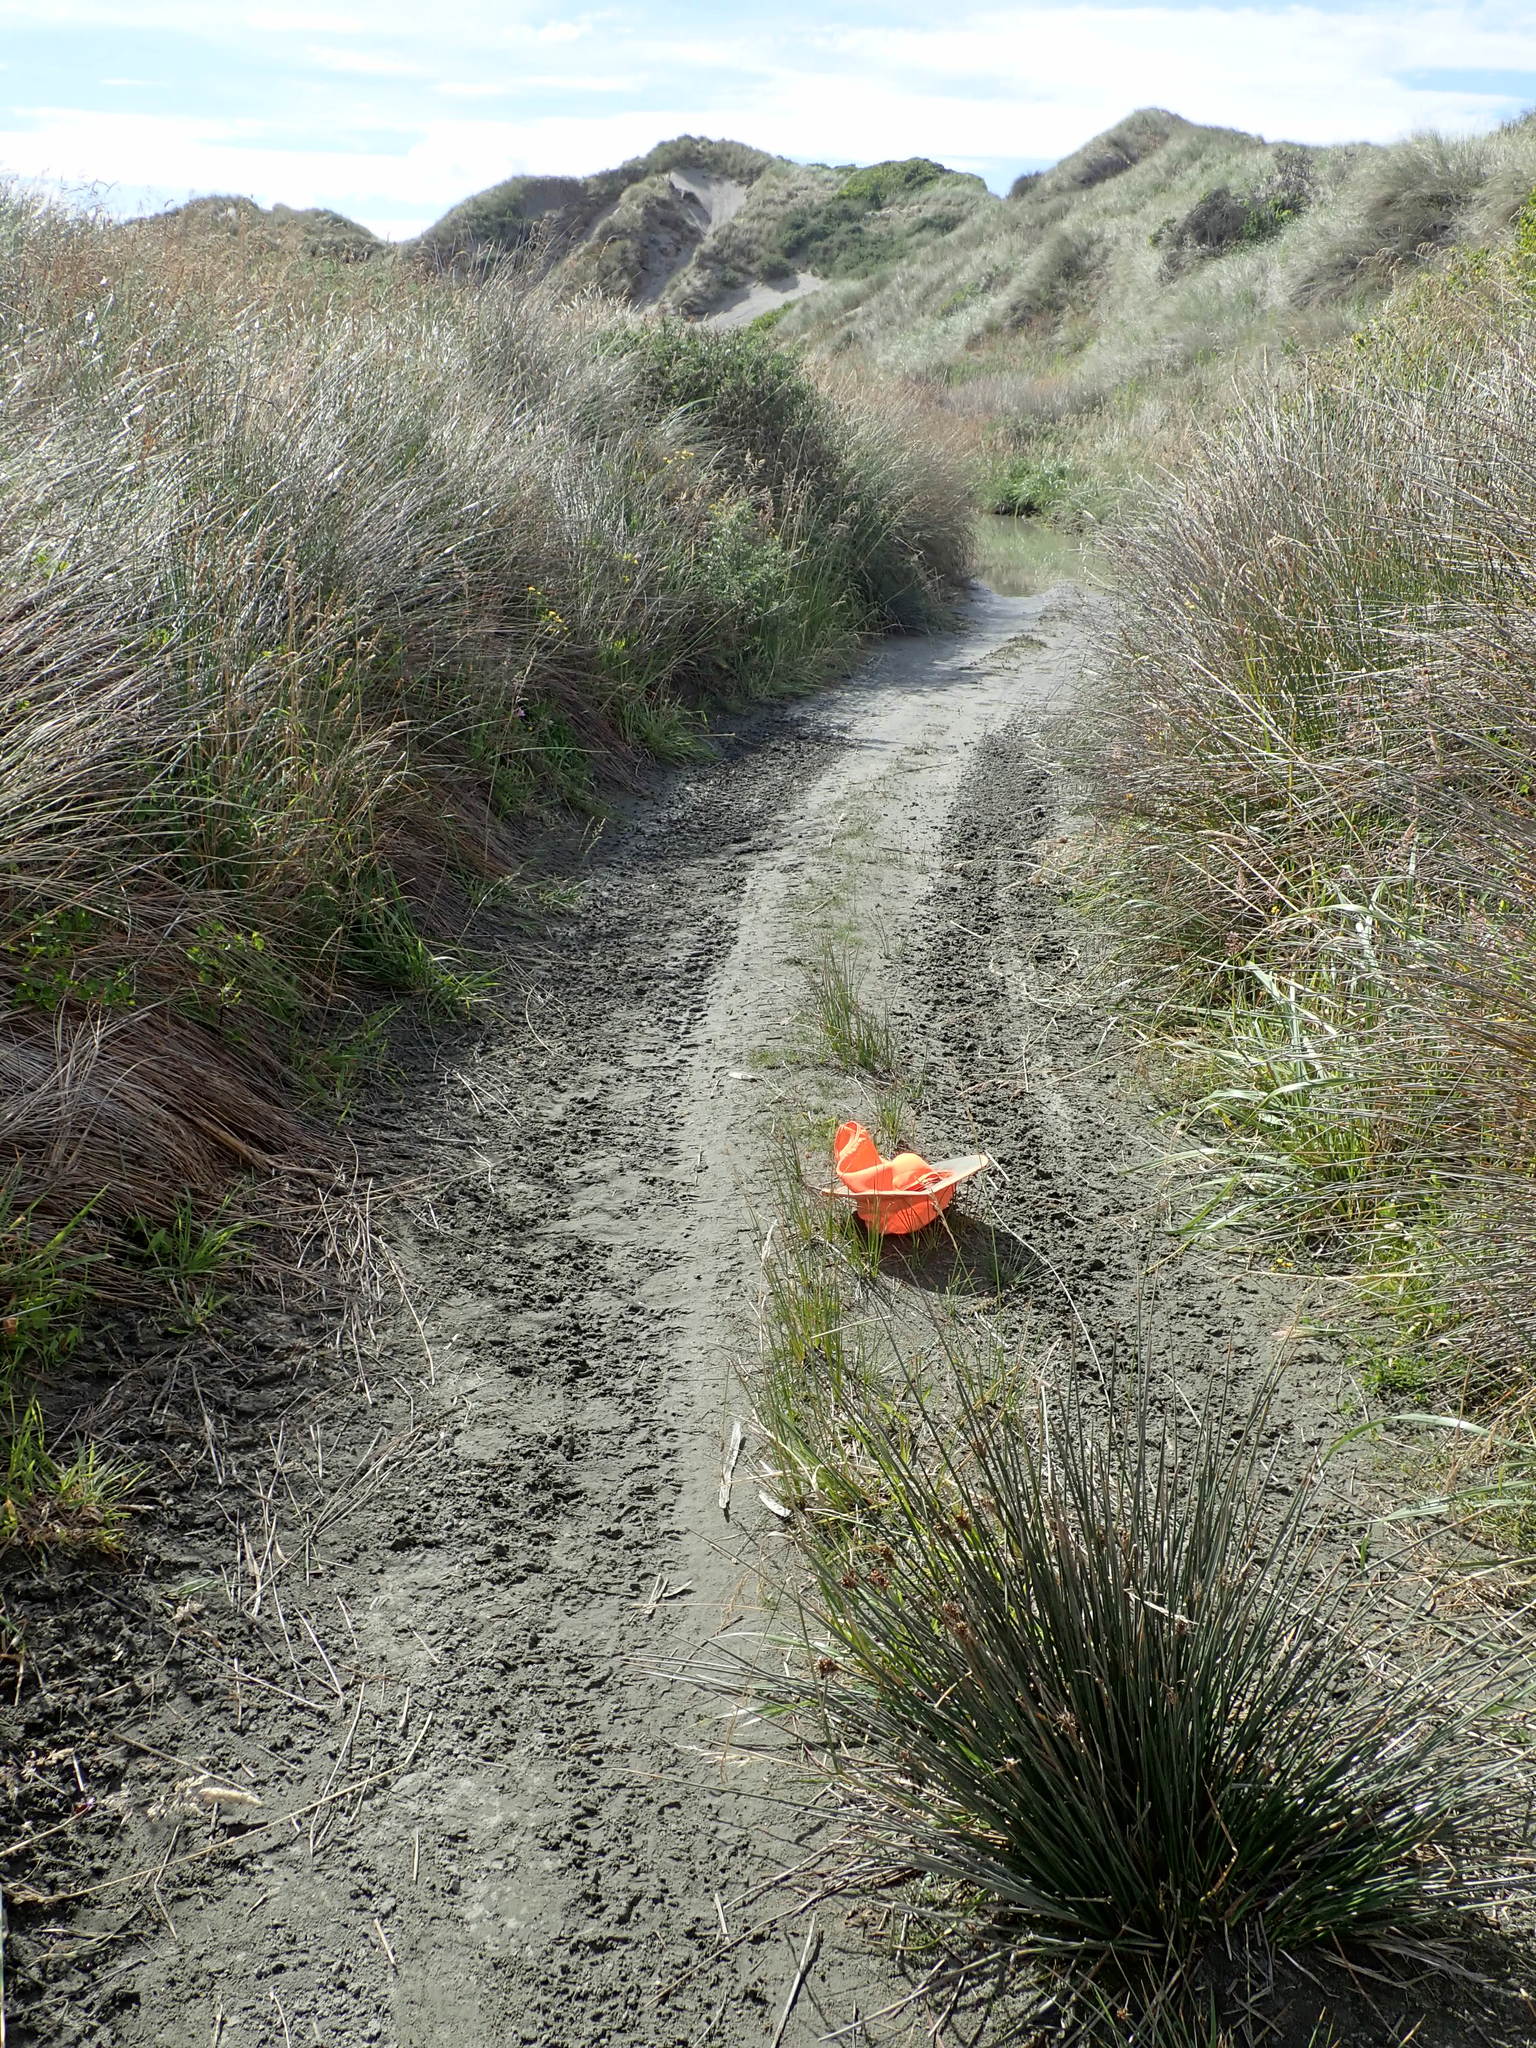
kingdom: Plantae
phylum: Tracheophyta
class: Magnoliopsida
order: Lamiales
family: Scrophulariaceae
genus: Limosella
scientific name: Limosella australis
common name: Welsh mudwort
